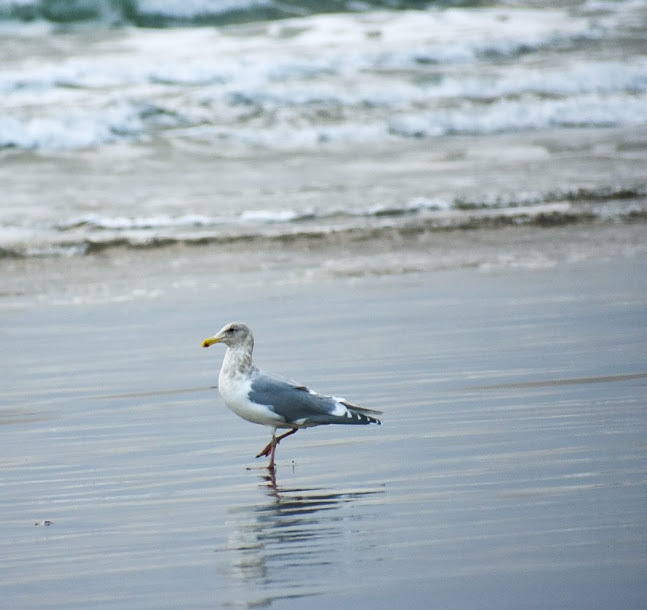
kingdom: Animalia
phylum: Chordata
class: Aves
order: Charadriiformes
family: Laridae
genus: Larus
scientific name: Larus
